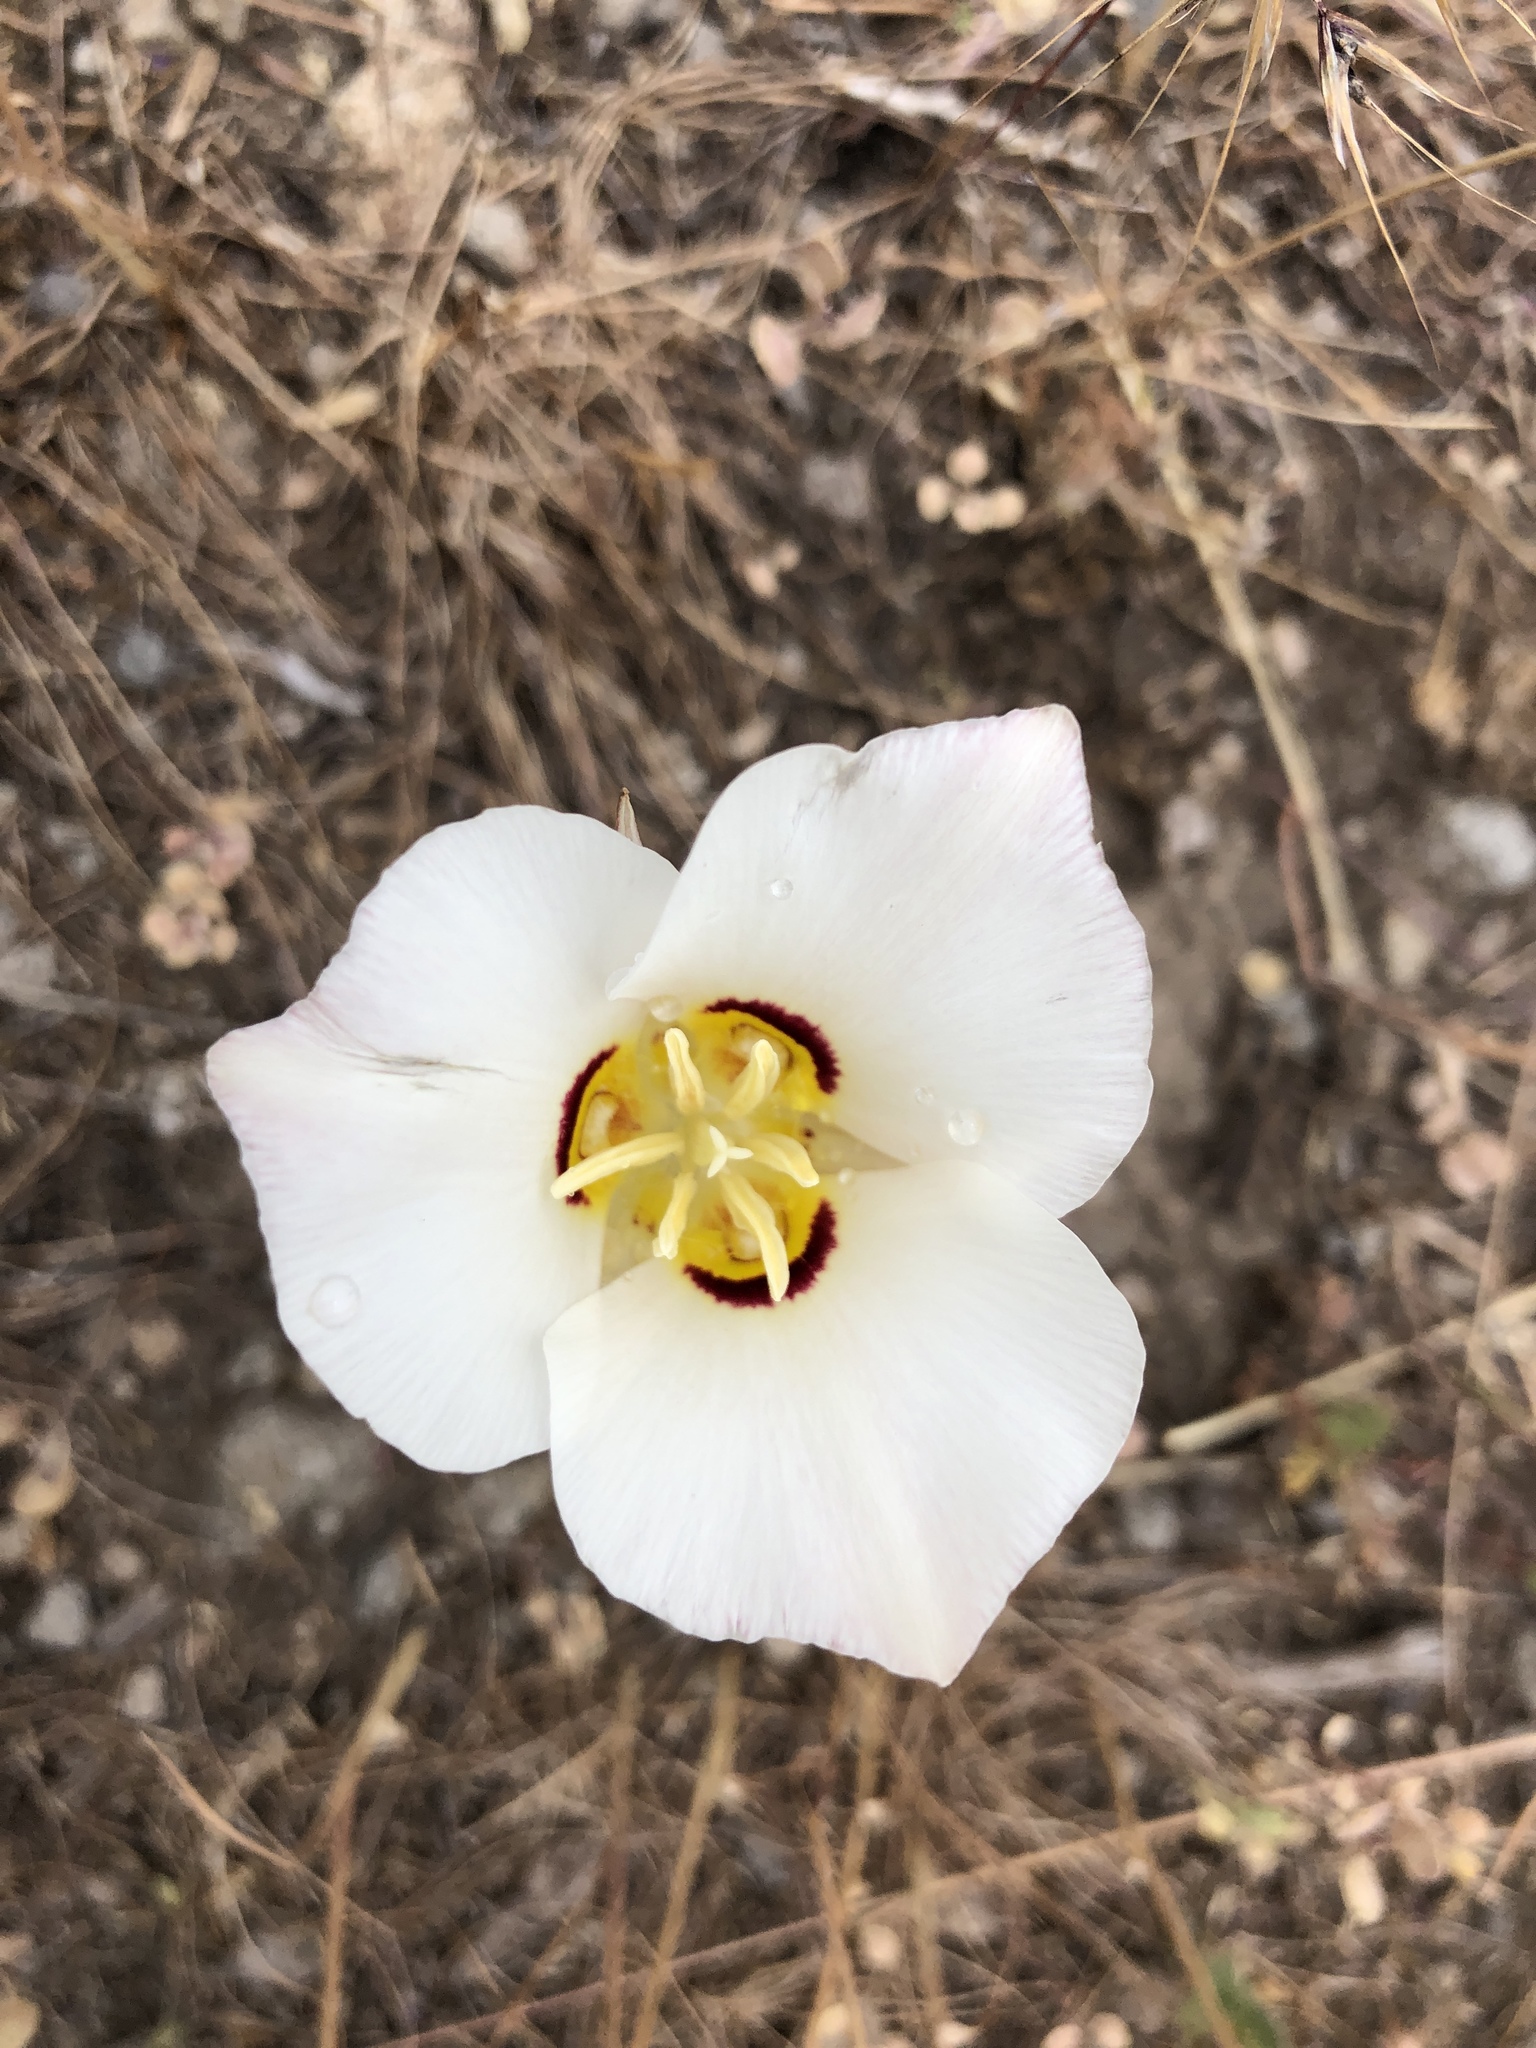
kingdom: Plantae
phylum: Tracheophyta
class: Liliopsida
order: Liliales
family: Liliaceae
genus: Calochortus
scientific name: Calochortus nuttallii
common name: Sego-lily
